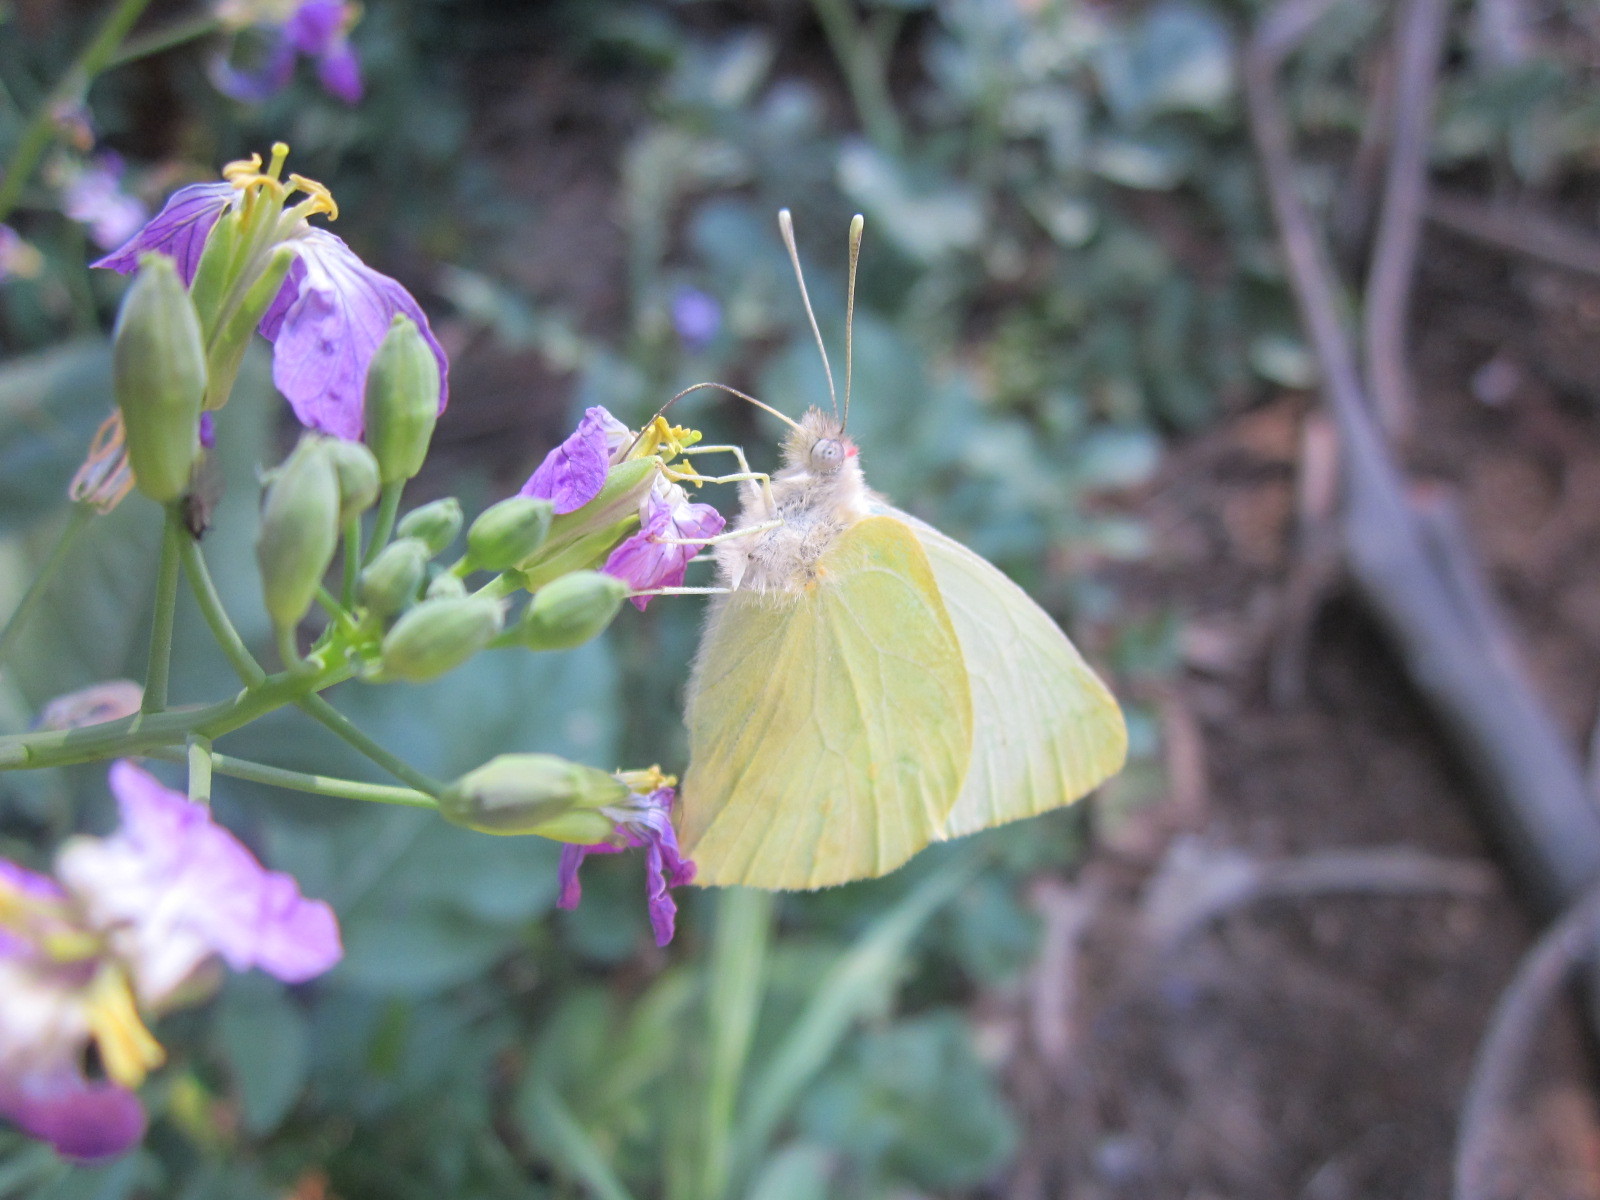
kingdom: Animalia
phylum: Arthropoda
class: Insecta
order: Lepidoptera
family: Pieridae
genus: Mathania
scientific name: Mathania leucothea
